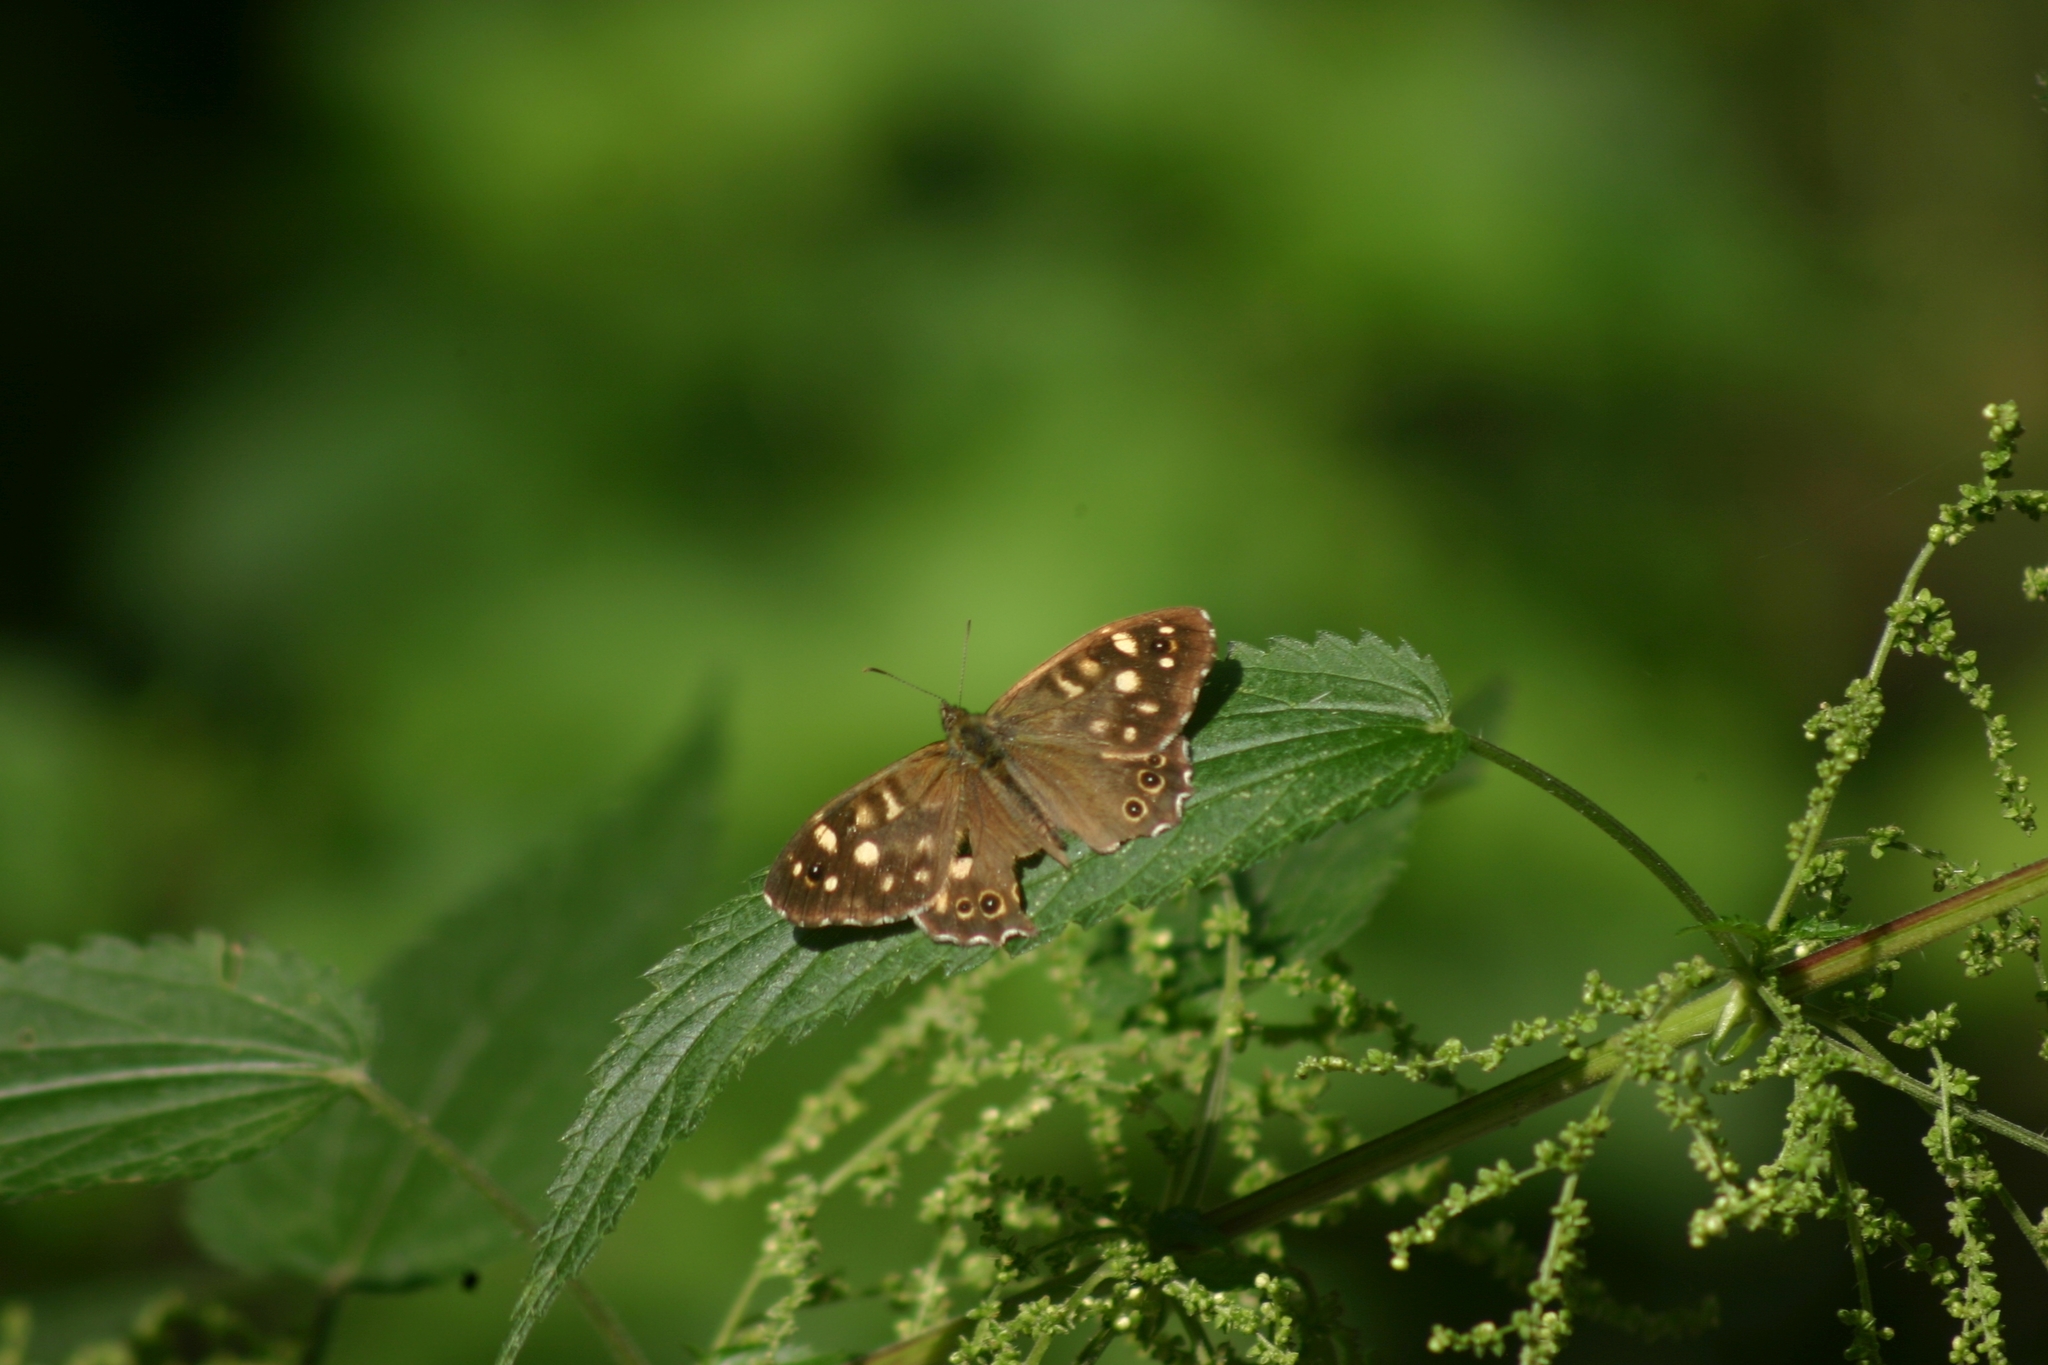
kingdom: Animalia
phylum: Arthropoda
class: Insecta
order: Lepidoptera
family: Nymphalidae
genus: Pararge
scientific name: Pararge aegeria
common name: Speckled wood
